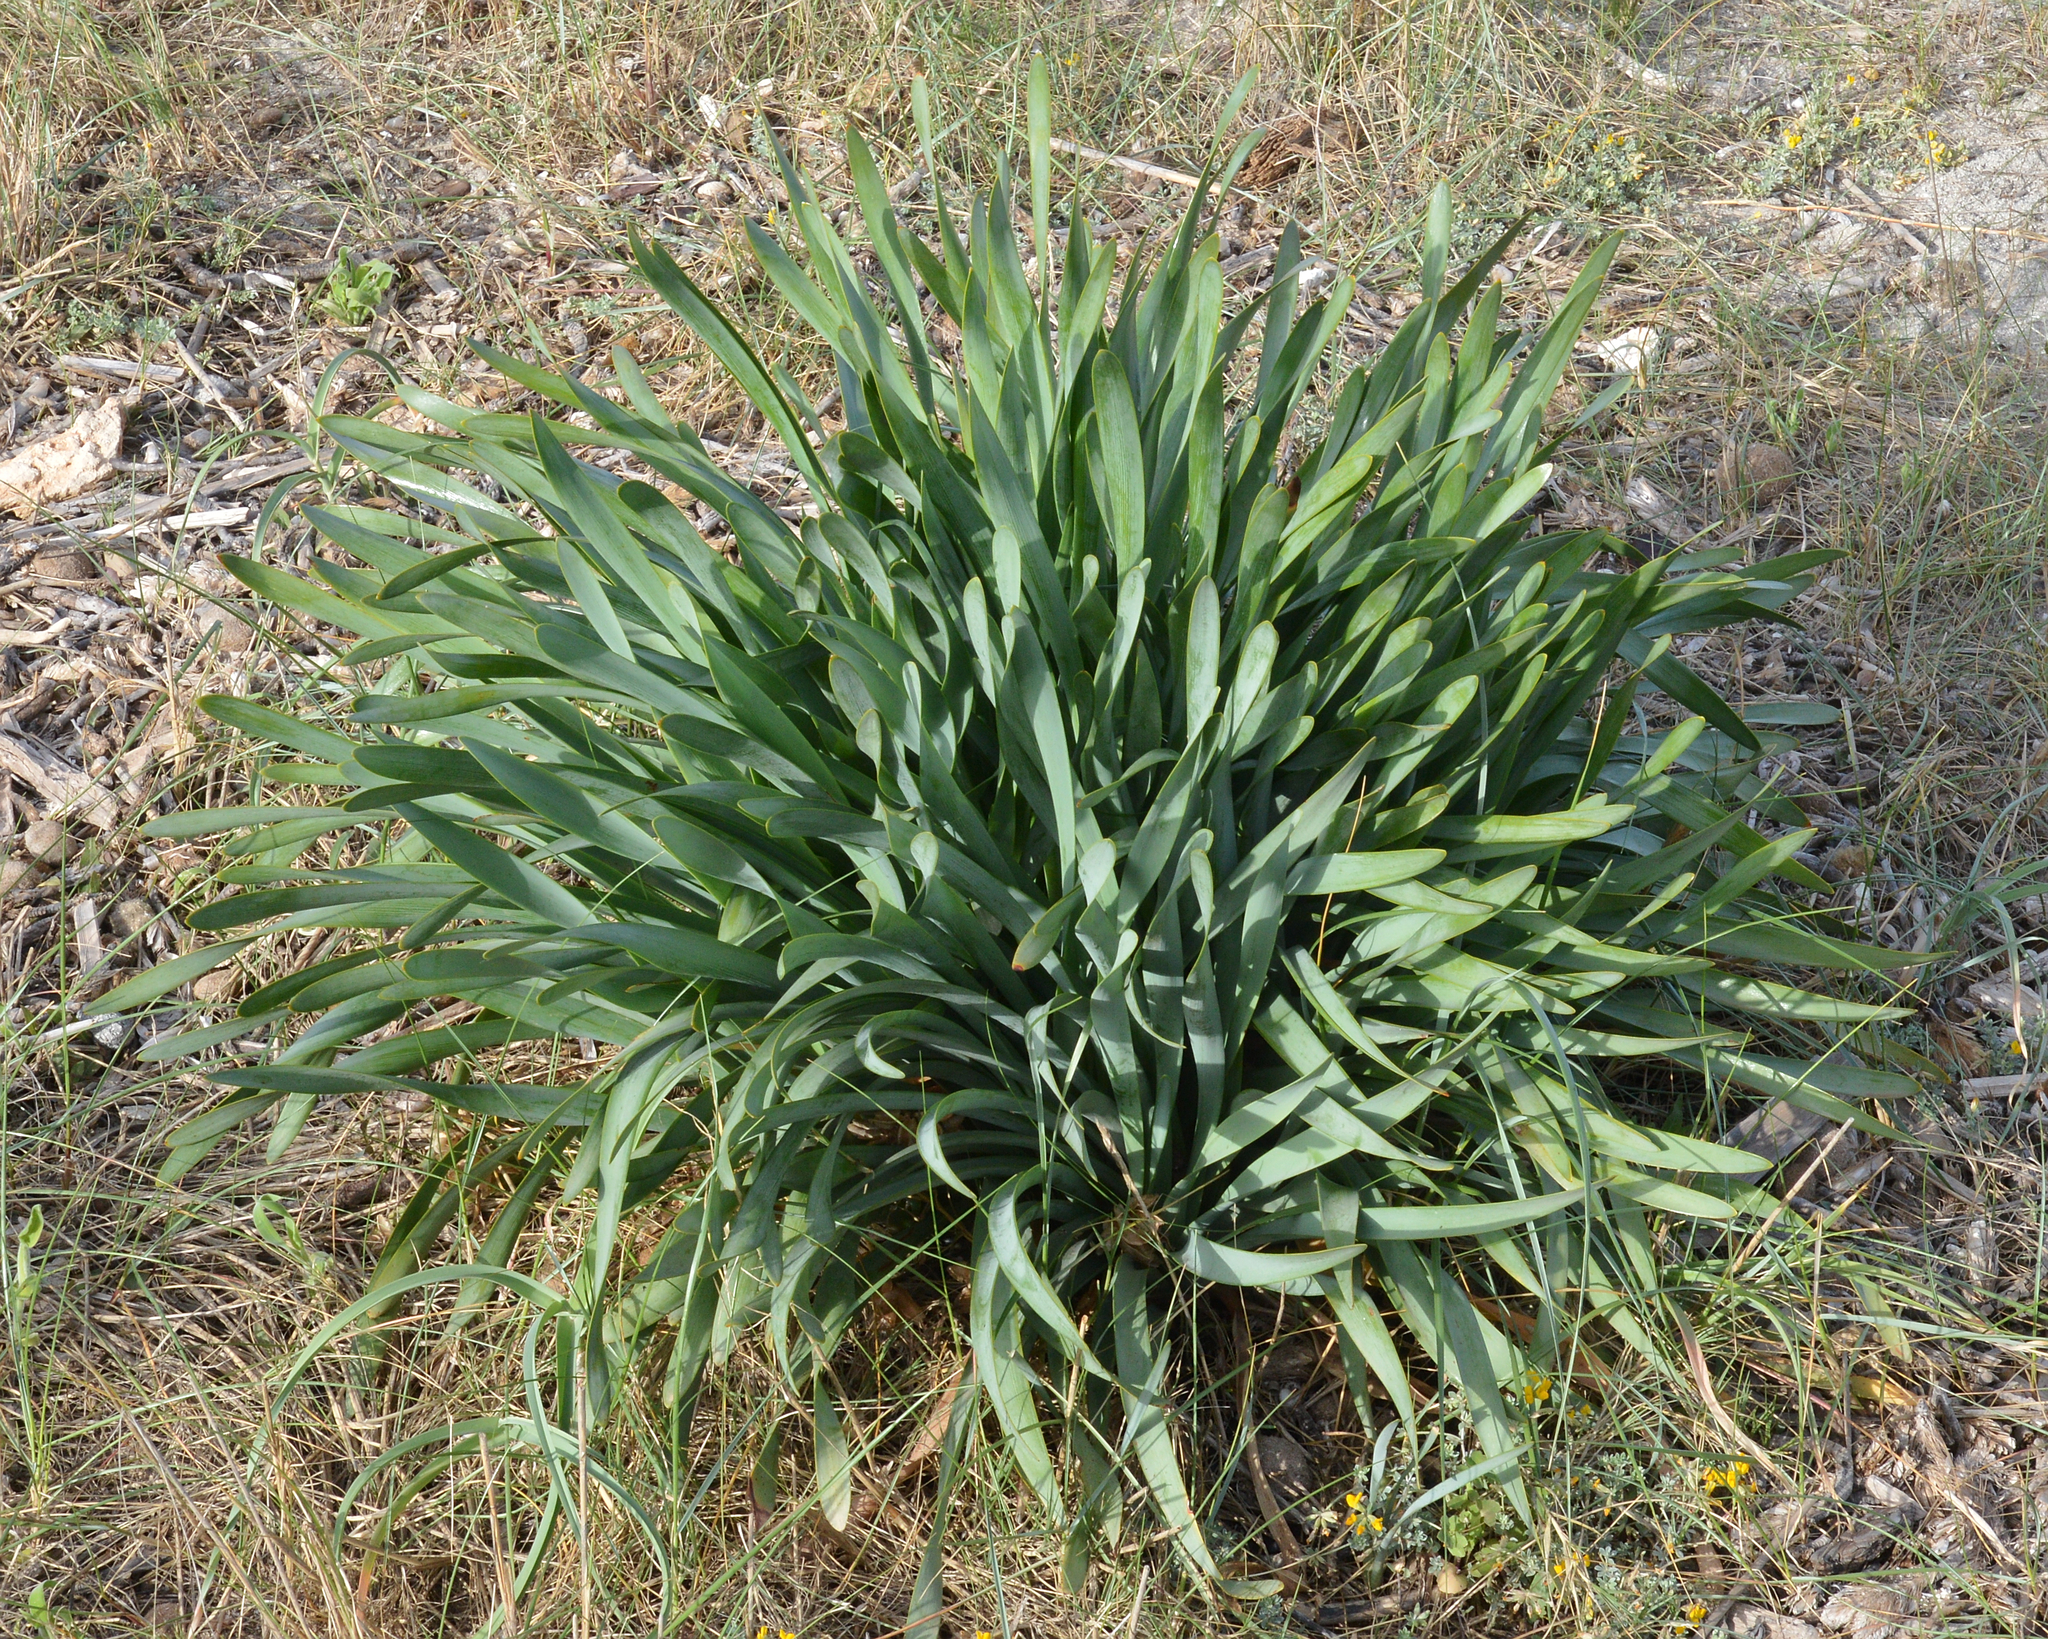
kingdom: Plantae
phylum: Tracheophyta
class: Liliopsida
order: Asparagales
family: Amaryllidaceae
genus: Pancratium
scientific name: Pancratium maritimum
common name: Sea-daffodil
